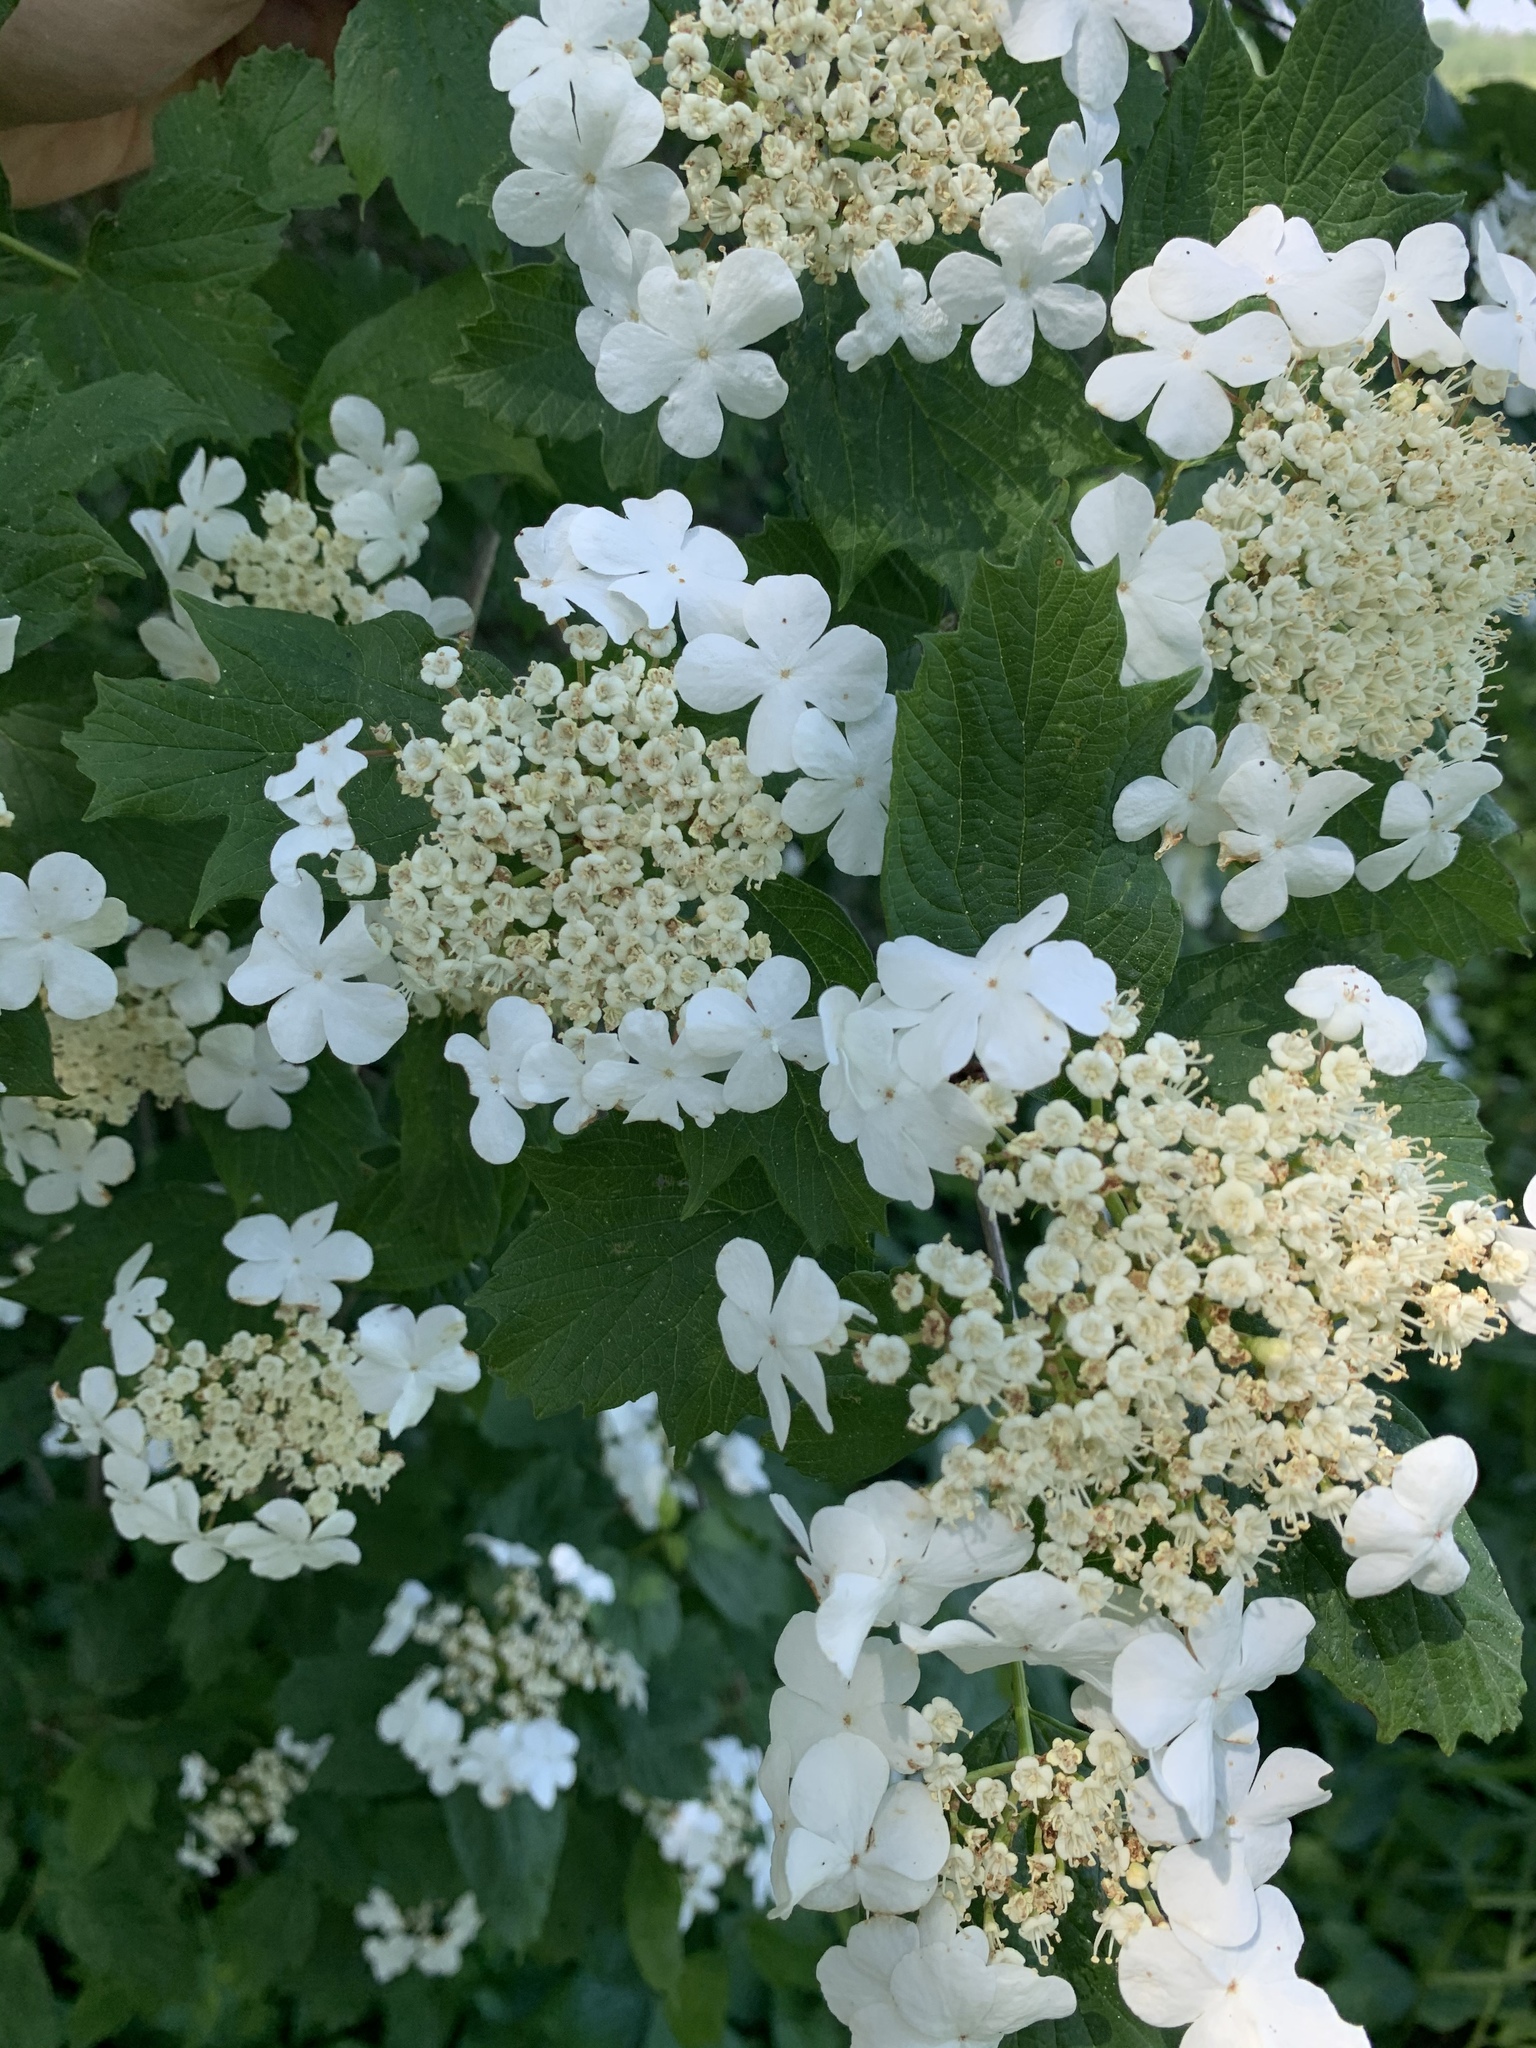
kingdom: Plantae
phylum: Tracheophyta
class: Magnoliopsida
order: Dipsacales
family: Viburnaceae
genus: Viburnum
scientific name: Viburnum opulus
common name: Guelder-rose
